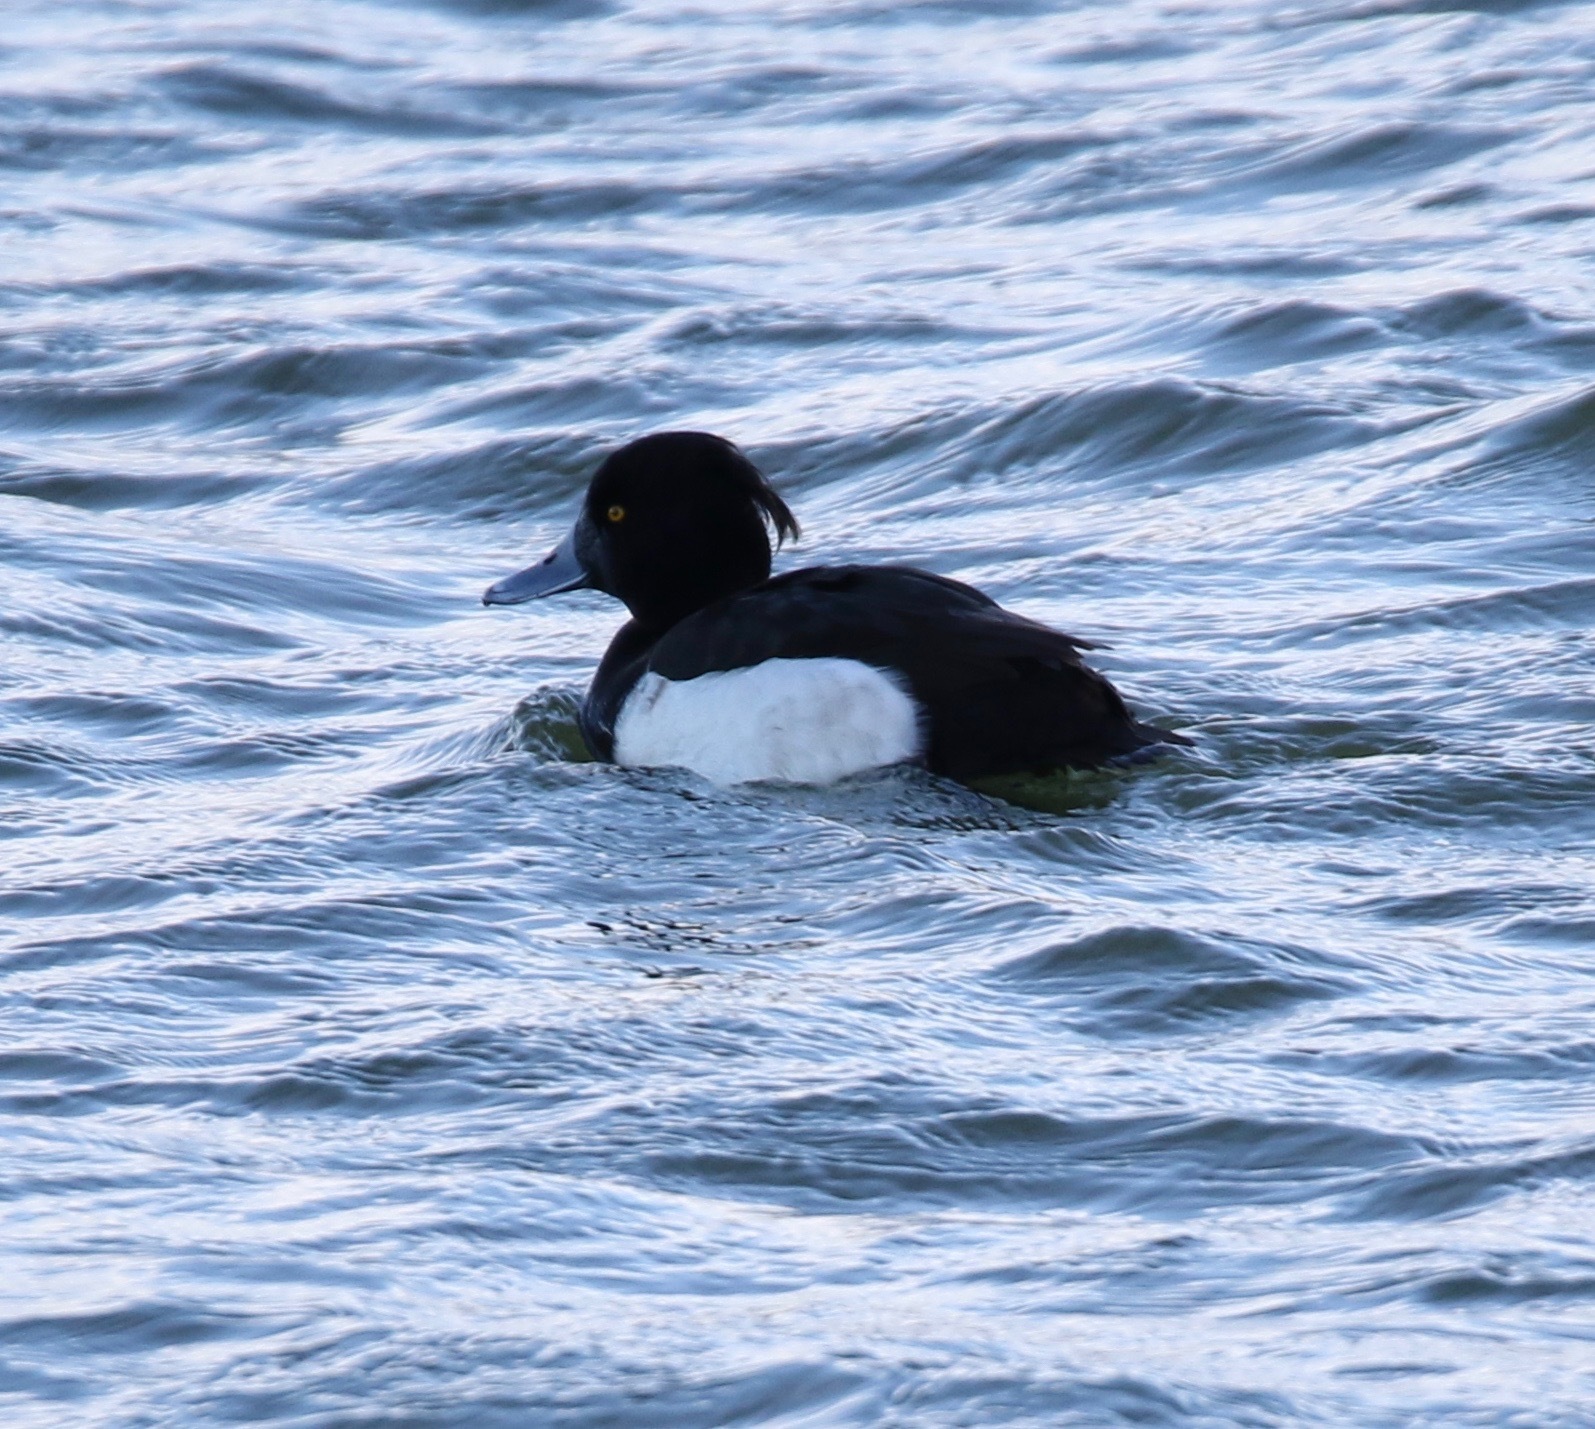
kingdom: Animalia
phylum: Chordata
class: Aves
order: Anseriformes
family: Anatidae
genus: Aythya
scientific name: Aythya fuligula
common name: Tufted duck
